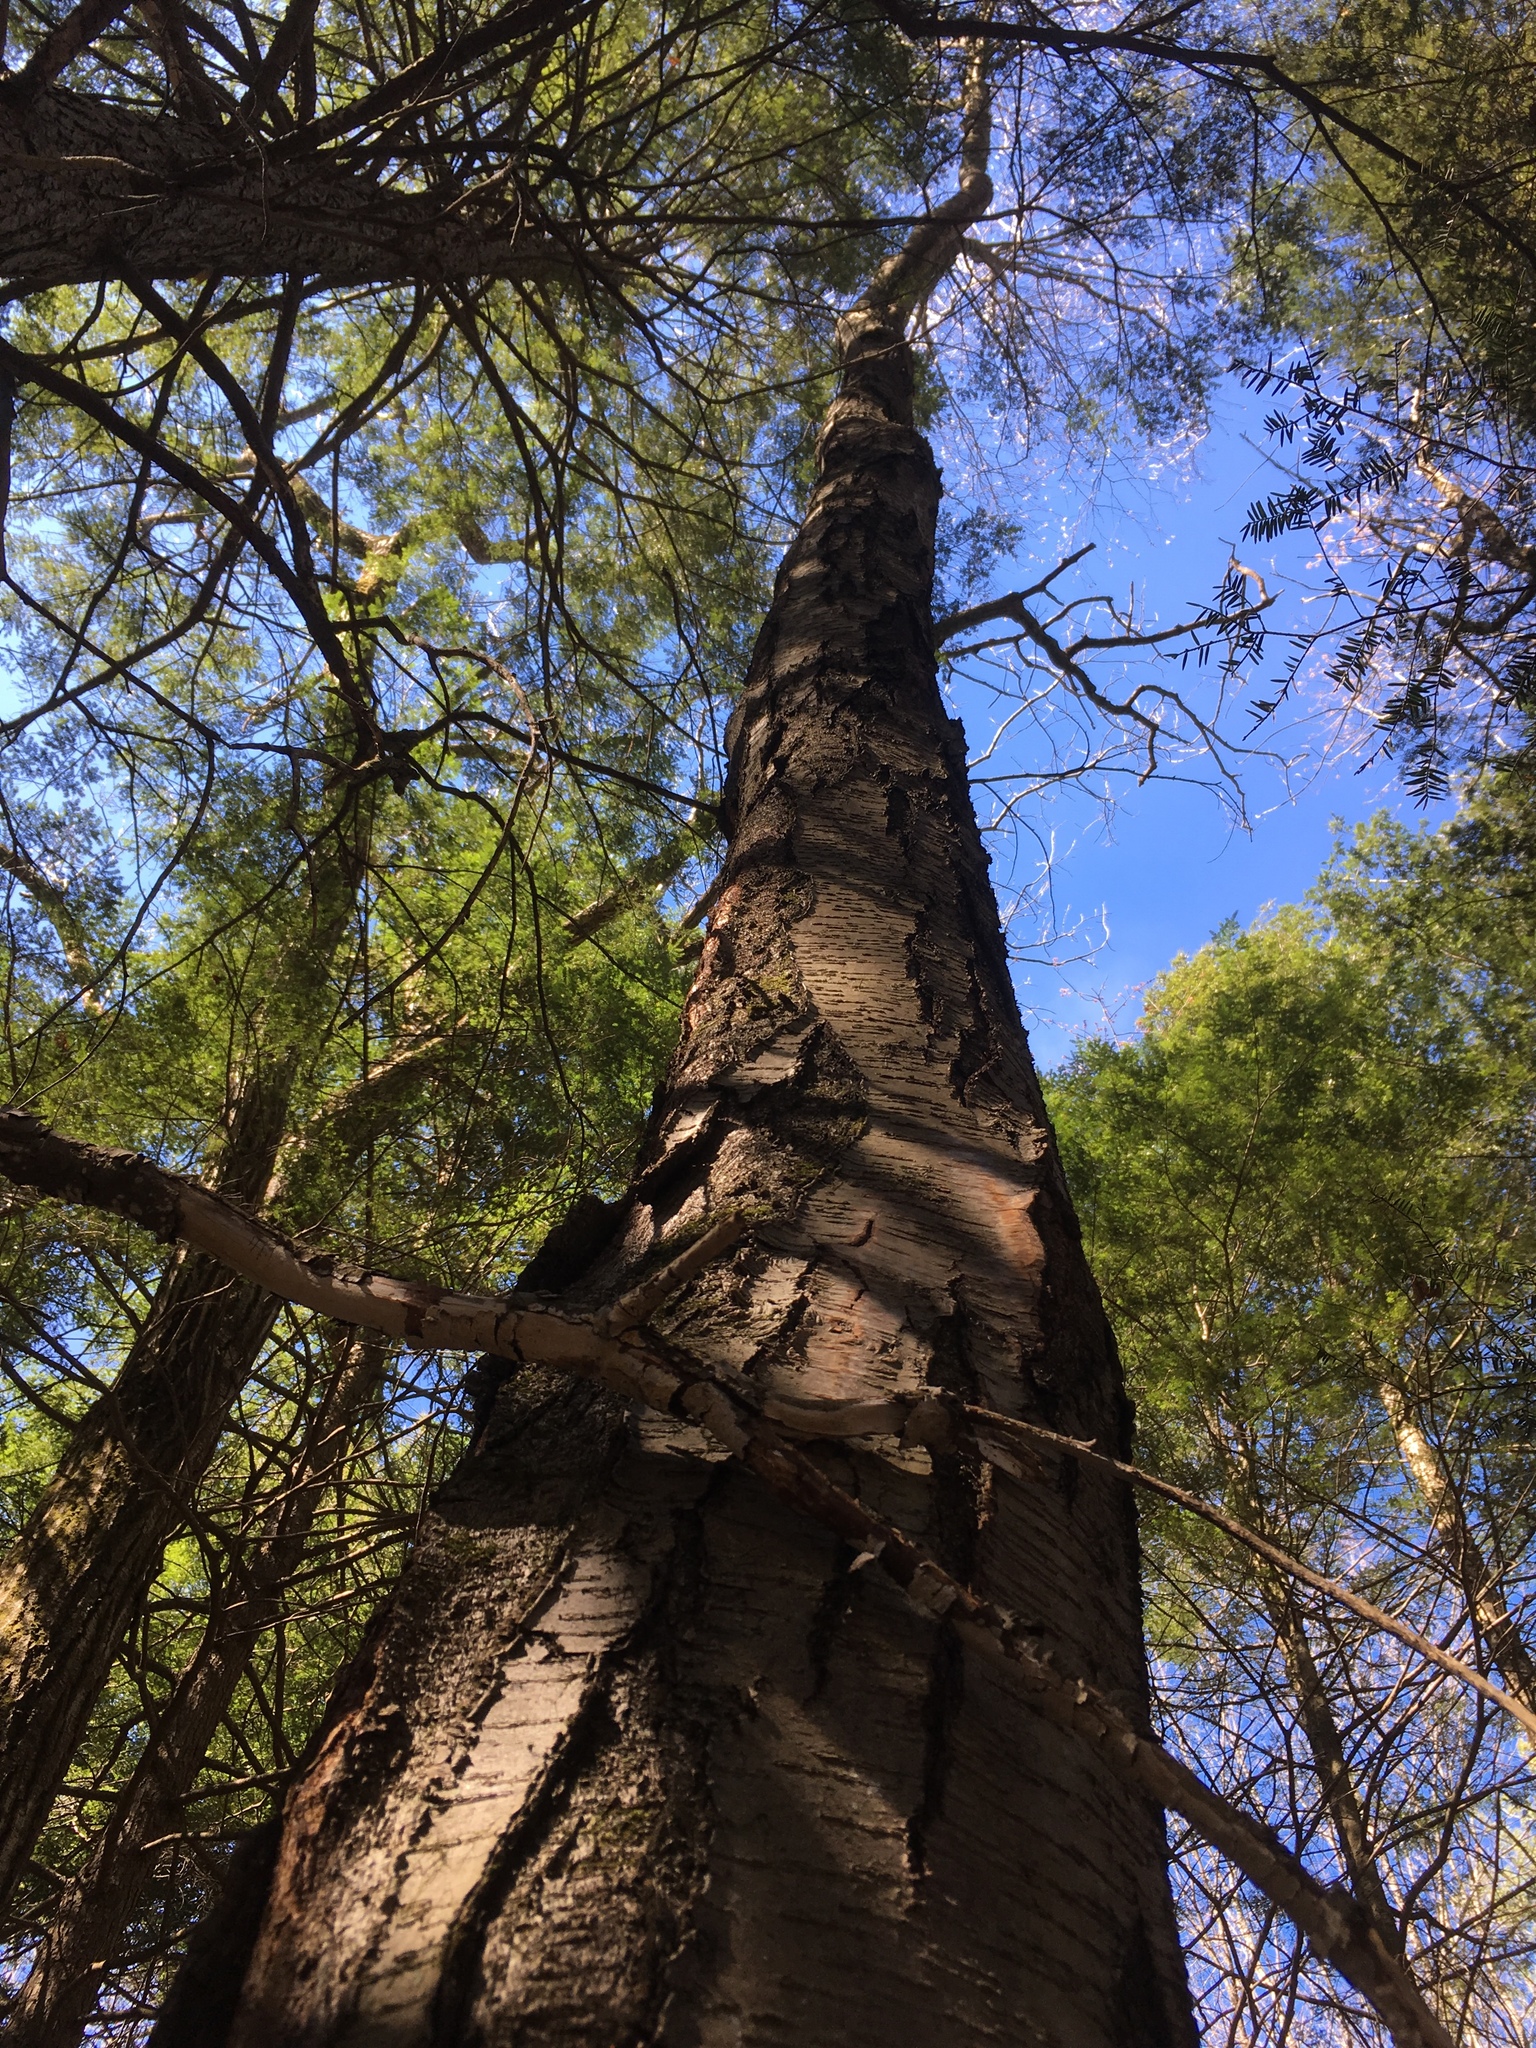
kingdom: Plantae
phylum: Tracheophyta
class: Magnoliopsida
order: Fagales
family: Betulaceae
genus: Betula
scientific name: Betula lenta
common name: Black birch
